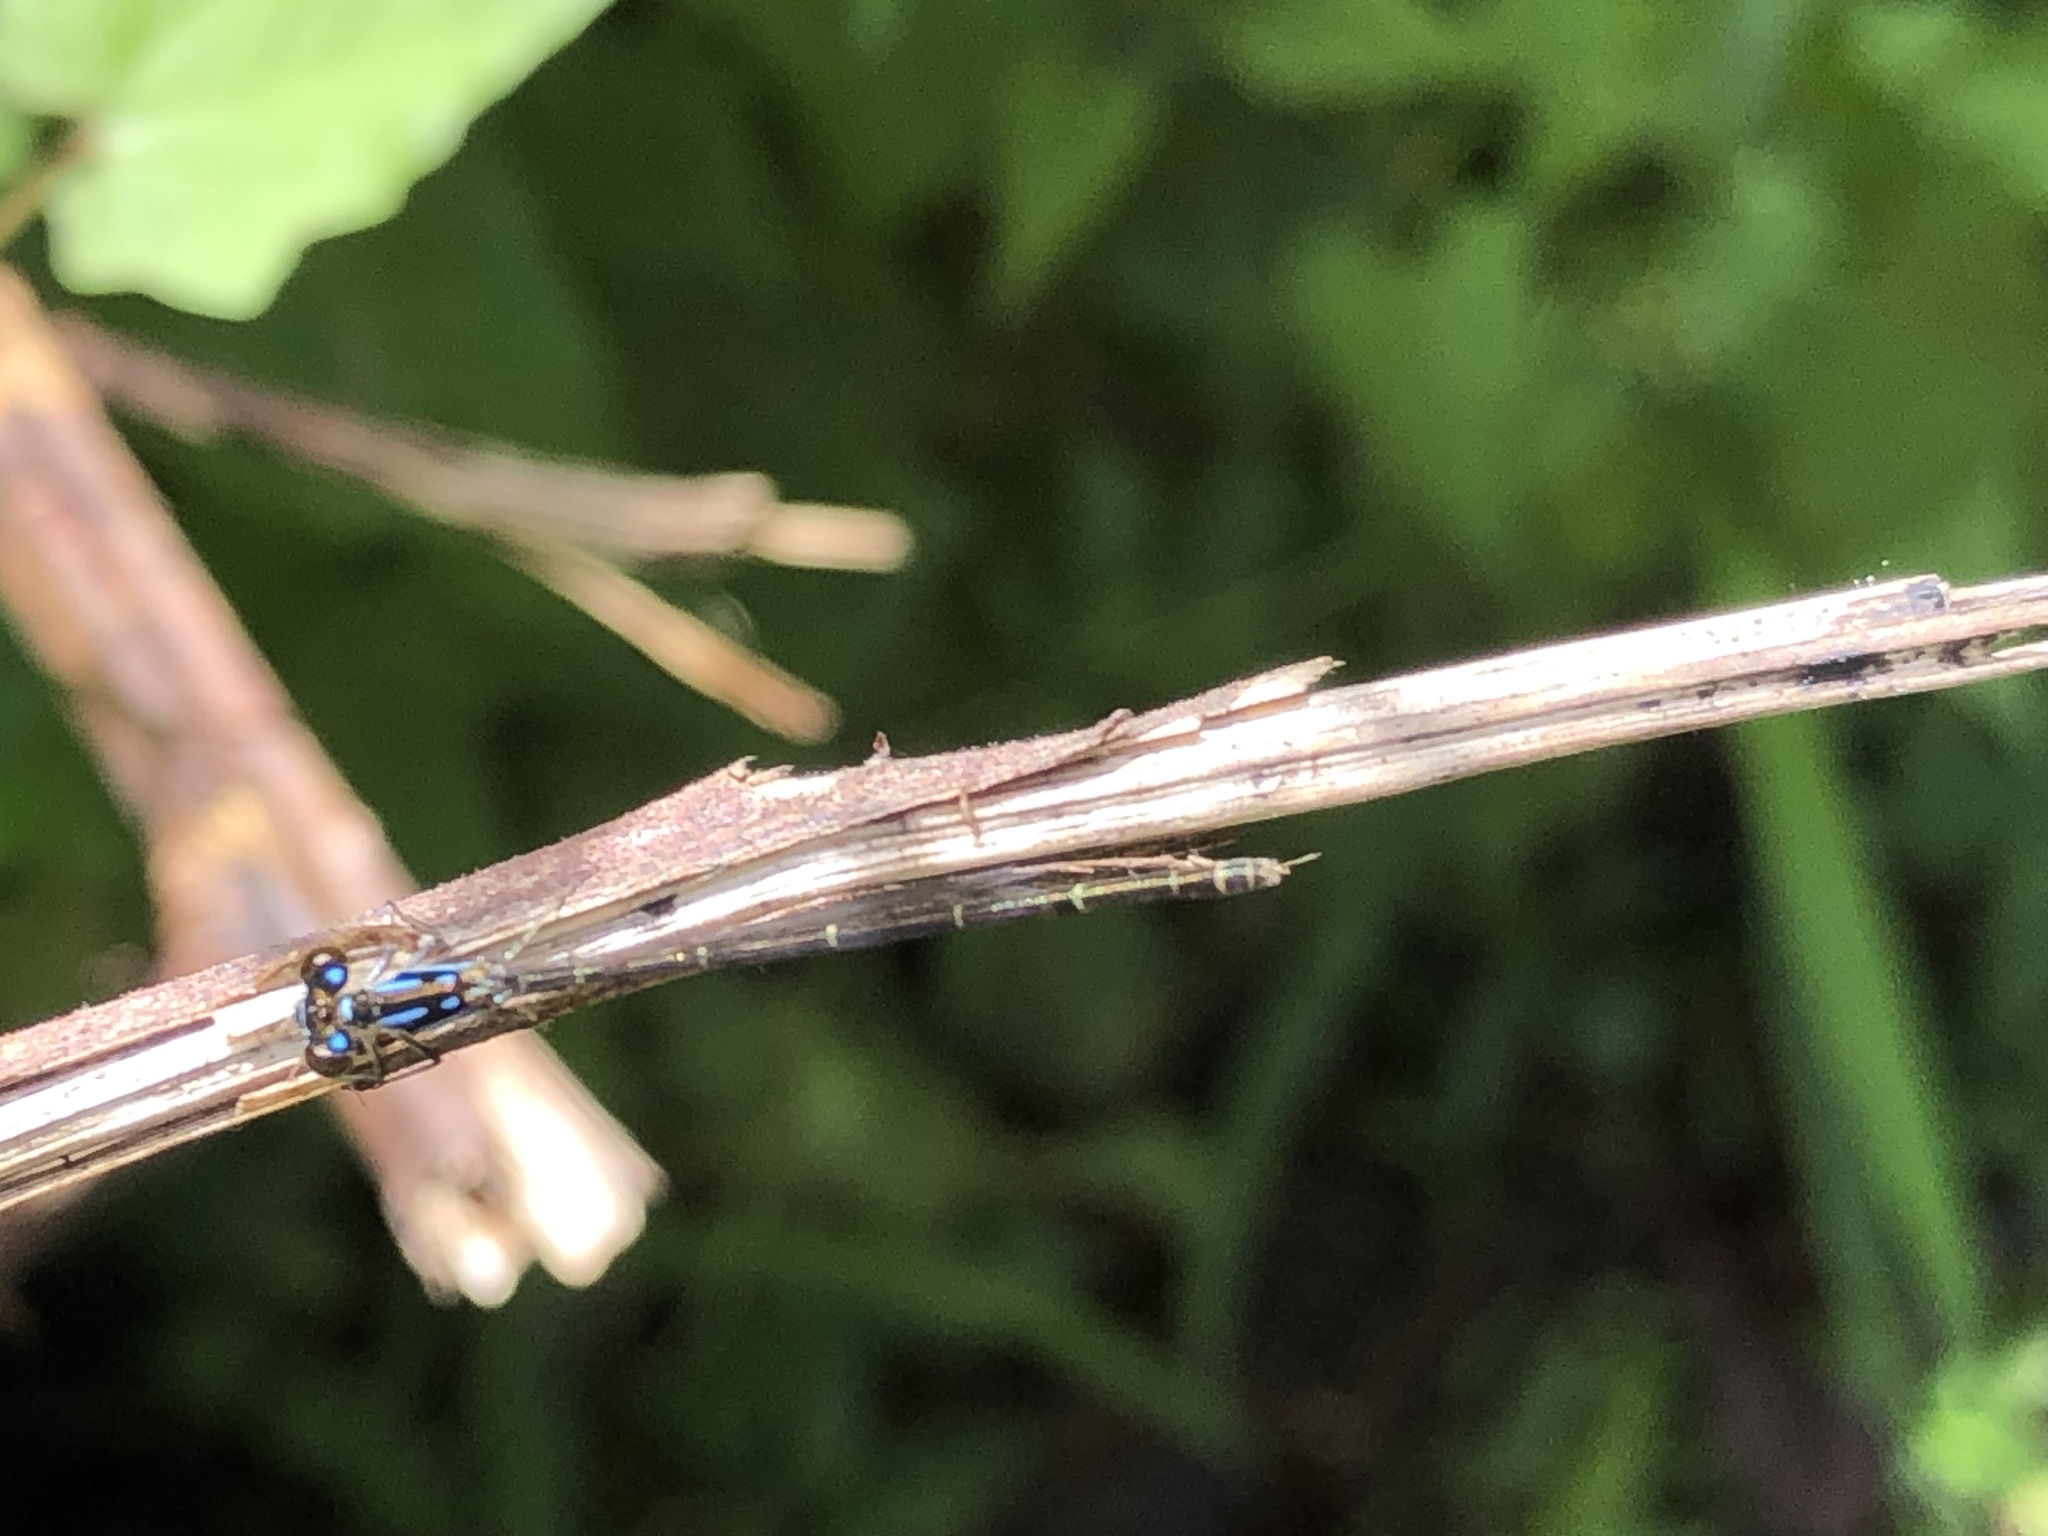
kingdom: Animalia
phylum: Arthropoda
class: Insecta
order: Odonata
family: Coenagrionidae
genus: Ischnura
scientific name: Ischnura posita
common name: Fragile forktail
